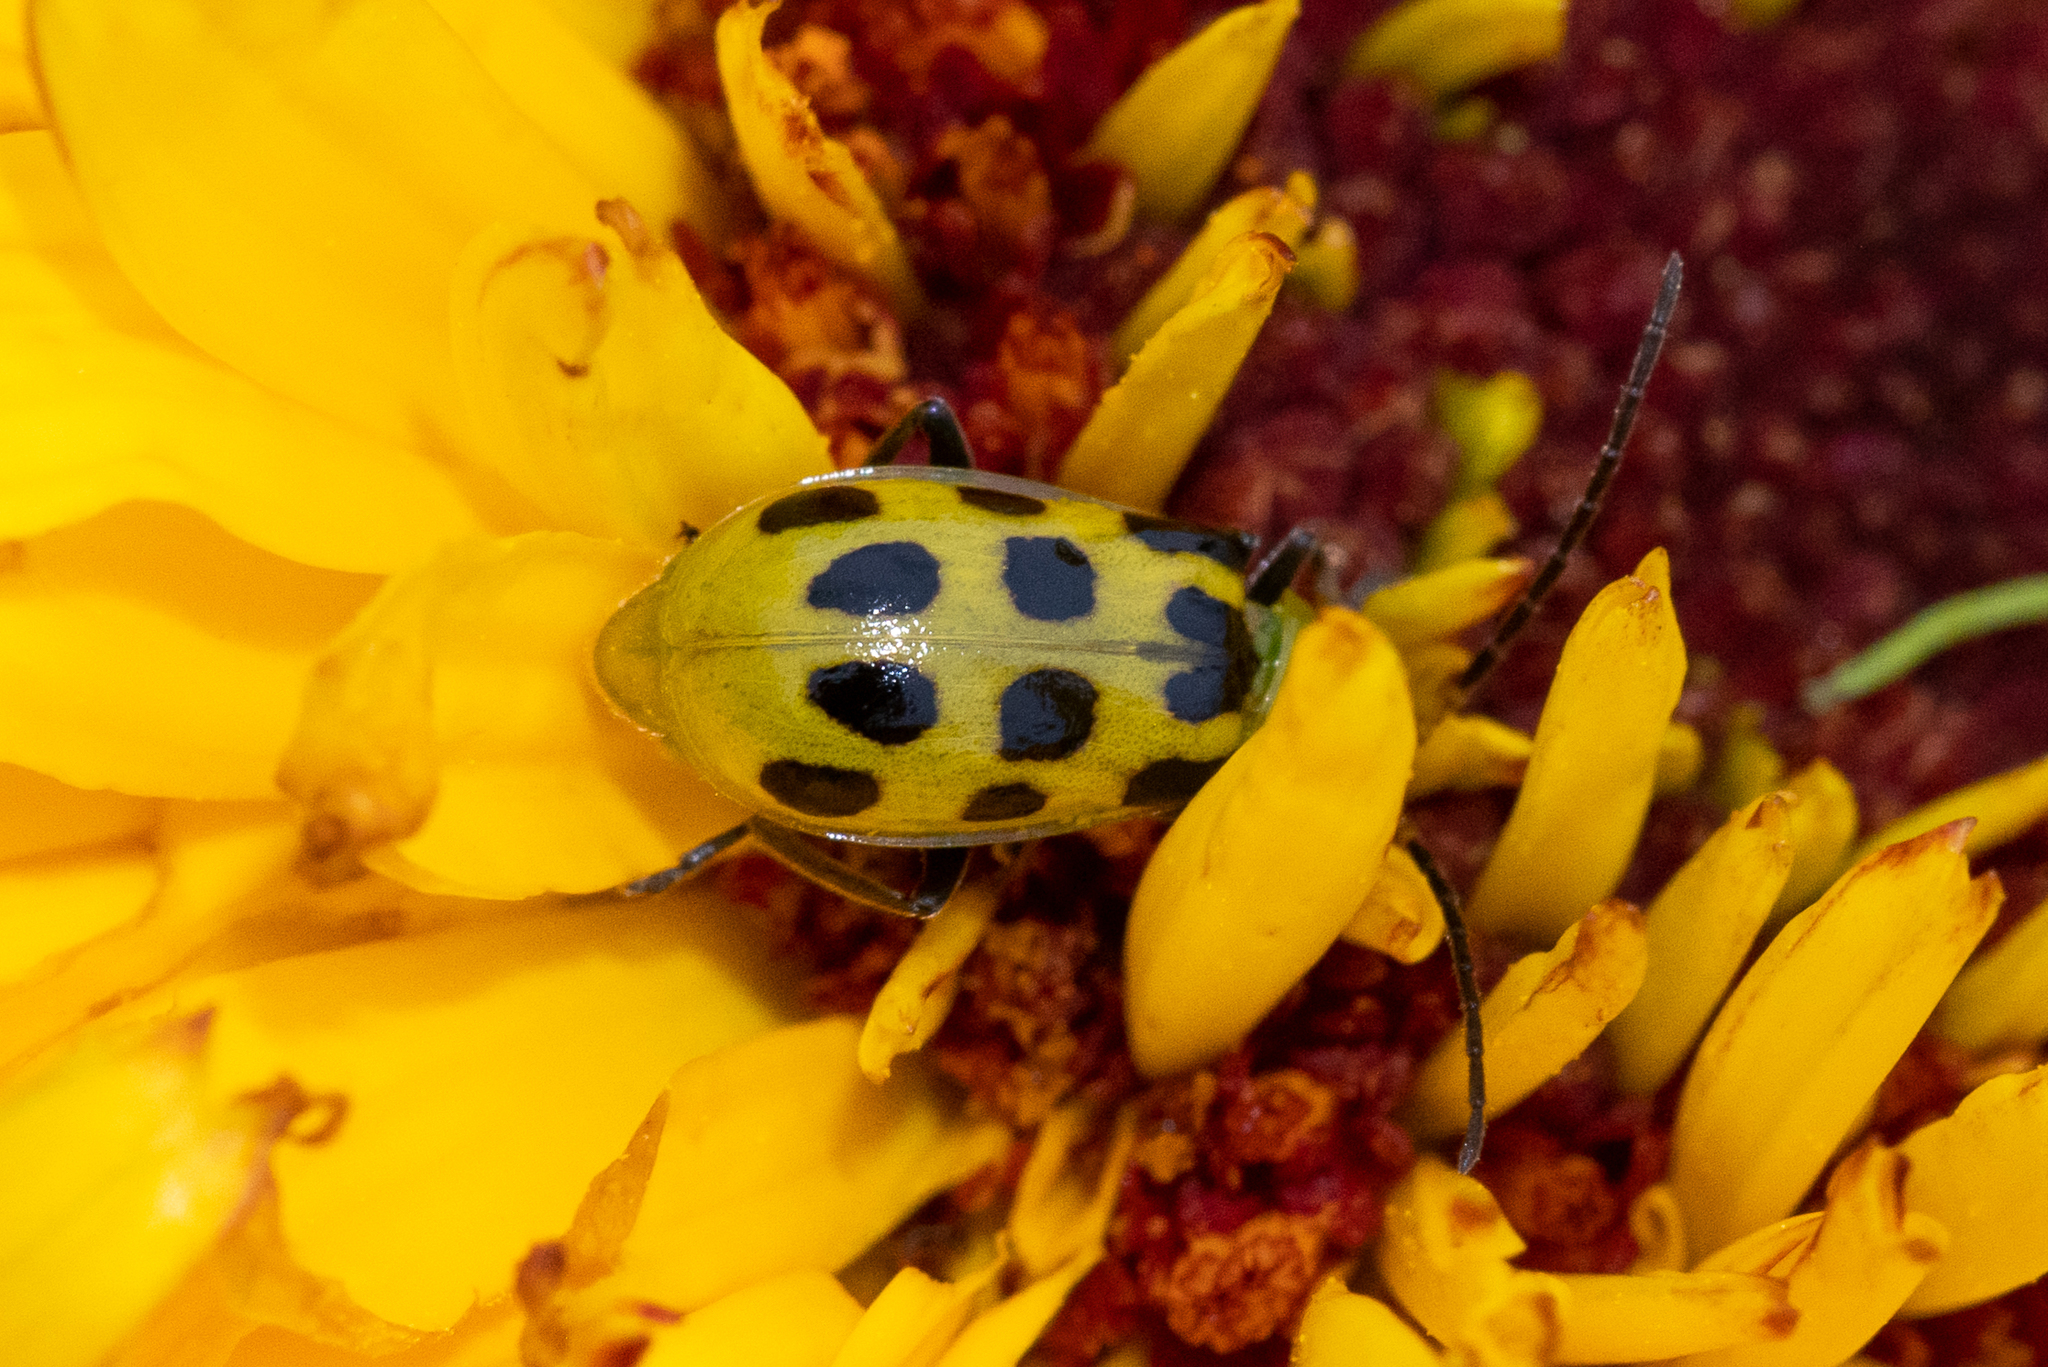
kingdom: Animalia
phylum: Arthropoda
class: Insecta
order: Coleoptera
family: Chrysomelidae
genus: Diabrotica
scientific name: Diabrotica undecimpunctata
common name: Spotted cucumber beetle
